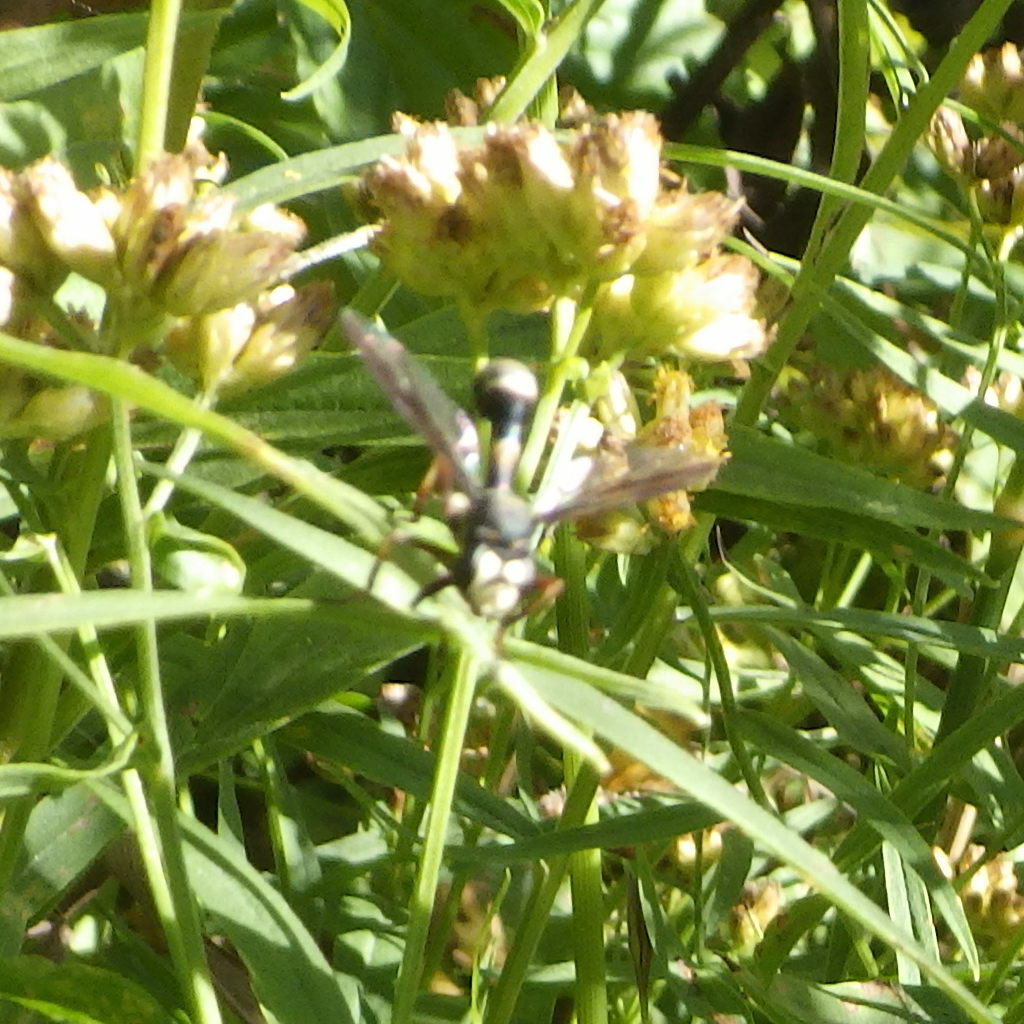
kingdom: Animalia
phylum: Arthropoda
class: Insecta
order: Diptera
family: Conopidae
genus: Physocephala
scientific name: Physocephala furcillata
